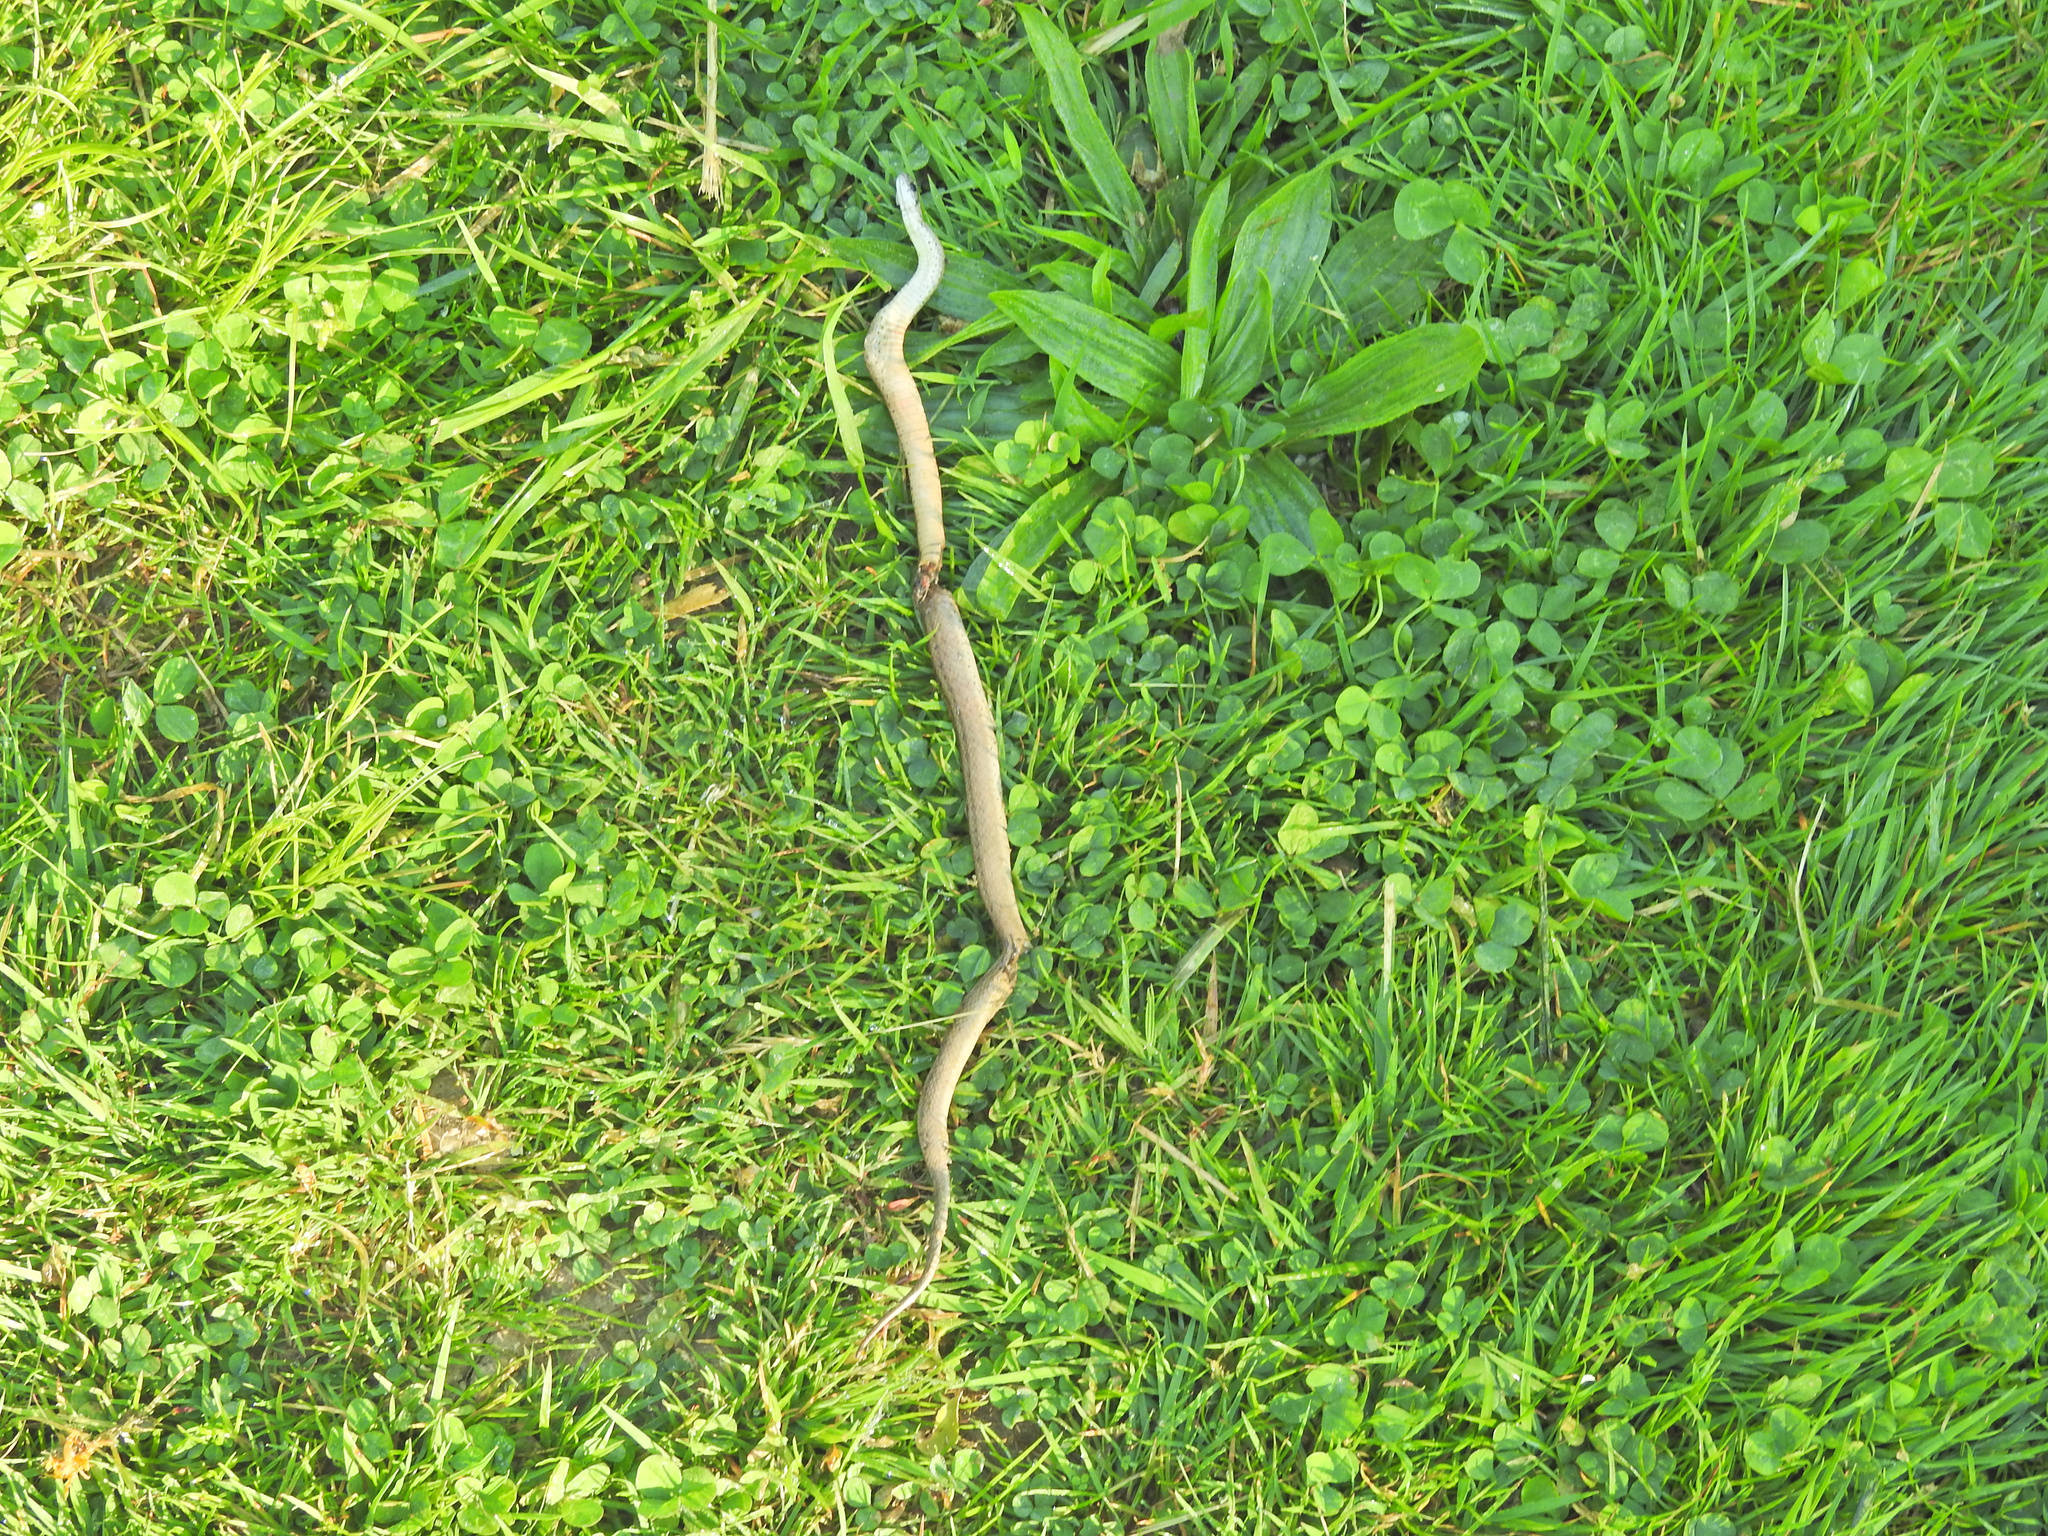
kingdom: Animalia
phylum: Chordata
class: Squamata
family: Colubridae
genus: Storeria
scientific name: Storeria dekayi
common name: (dekay’s) brown snake
